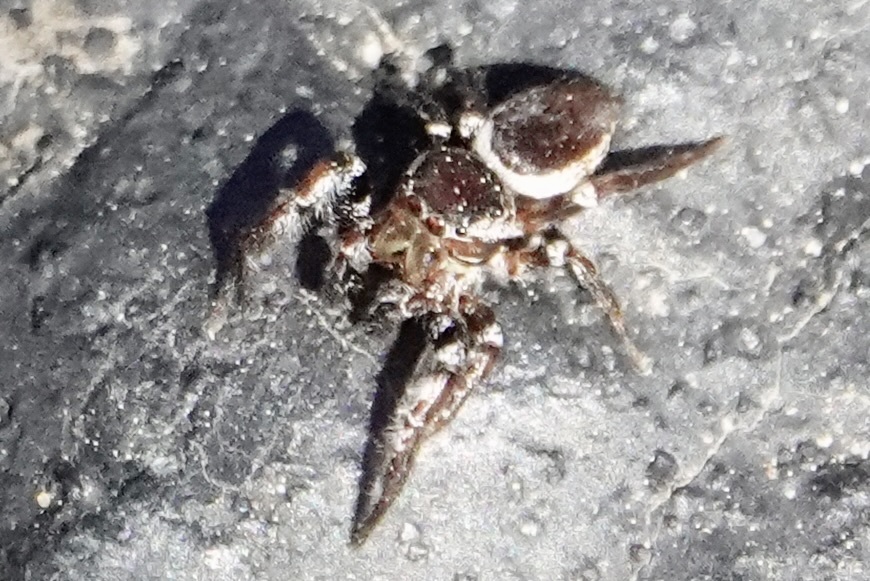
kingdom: Animalia
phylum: Arthropoda
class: Arachnida
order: Araneae
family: Salticidae
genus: Pelegrina
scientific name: Pelegrina exigua
